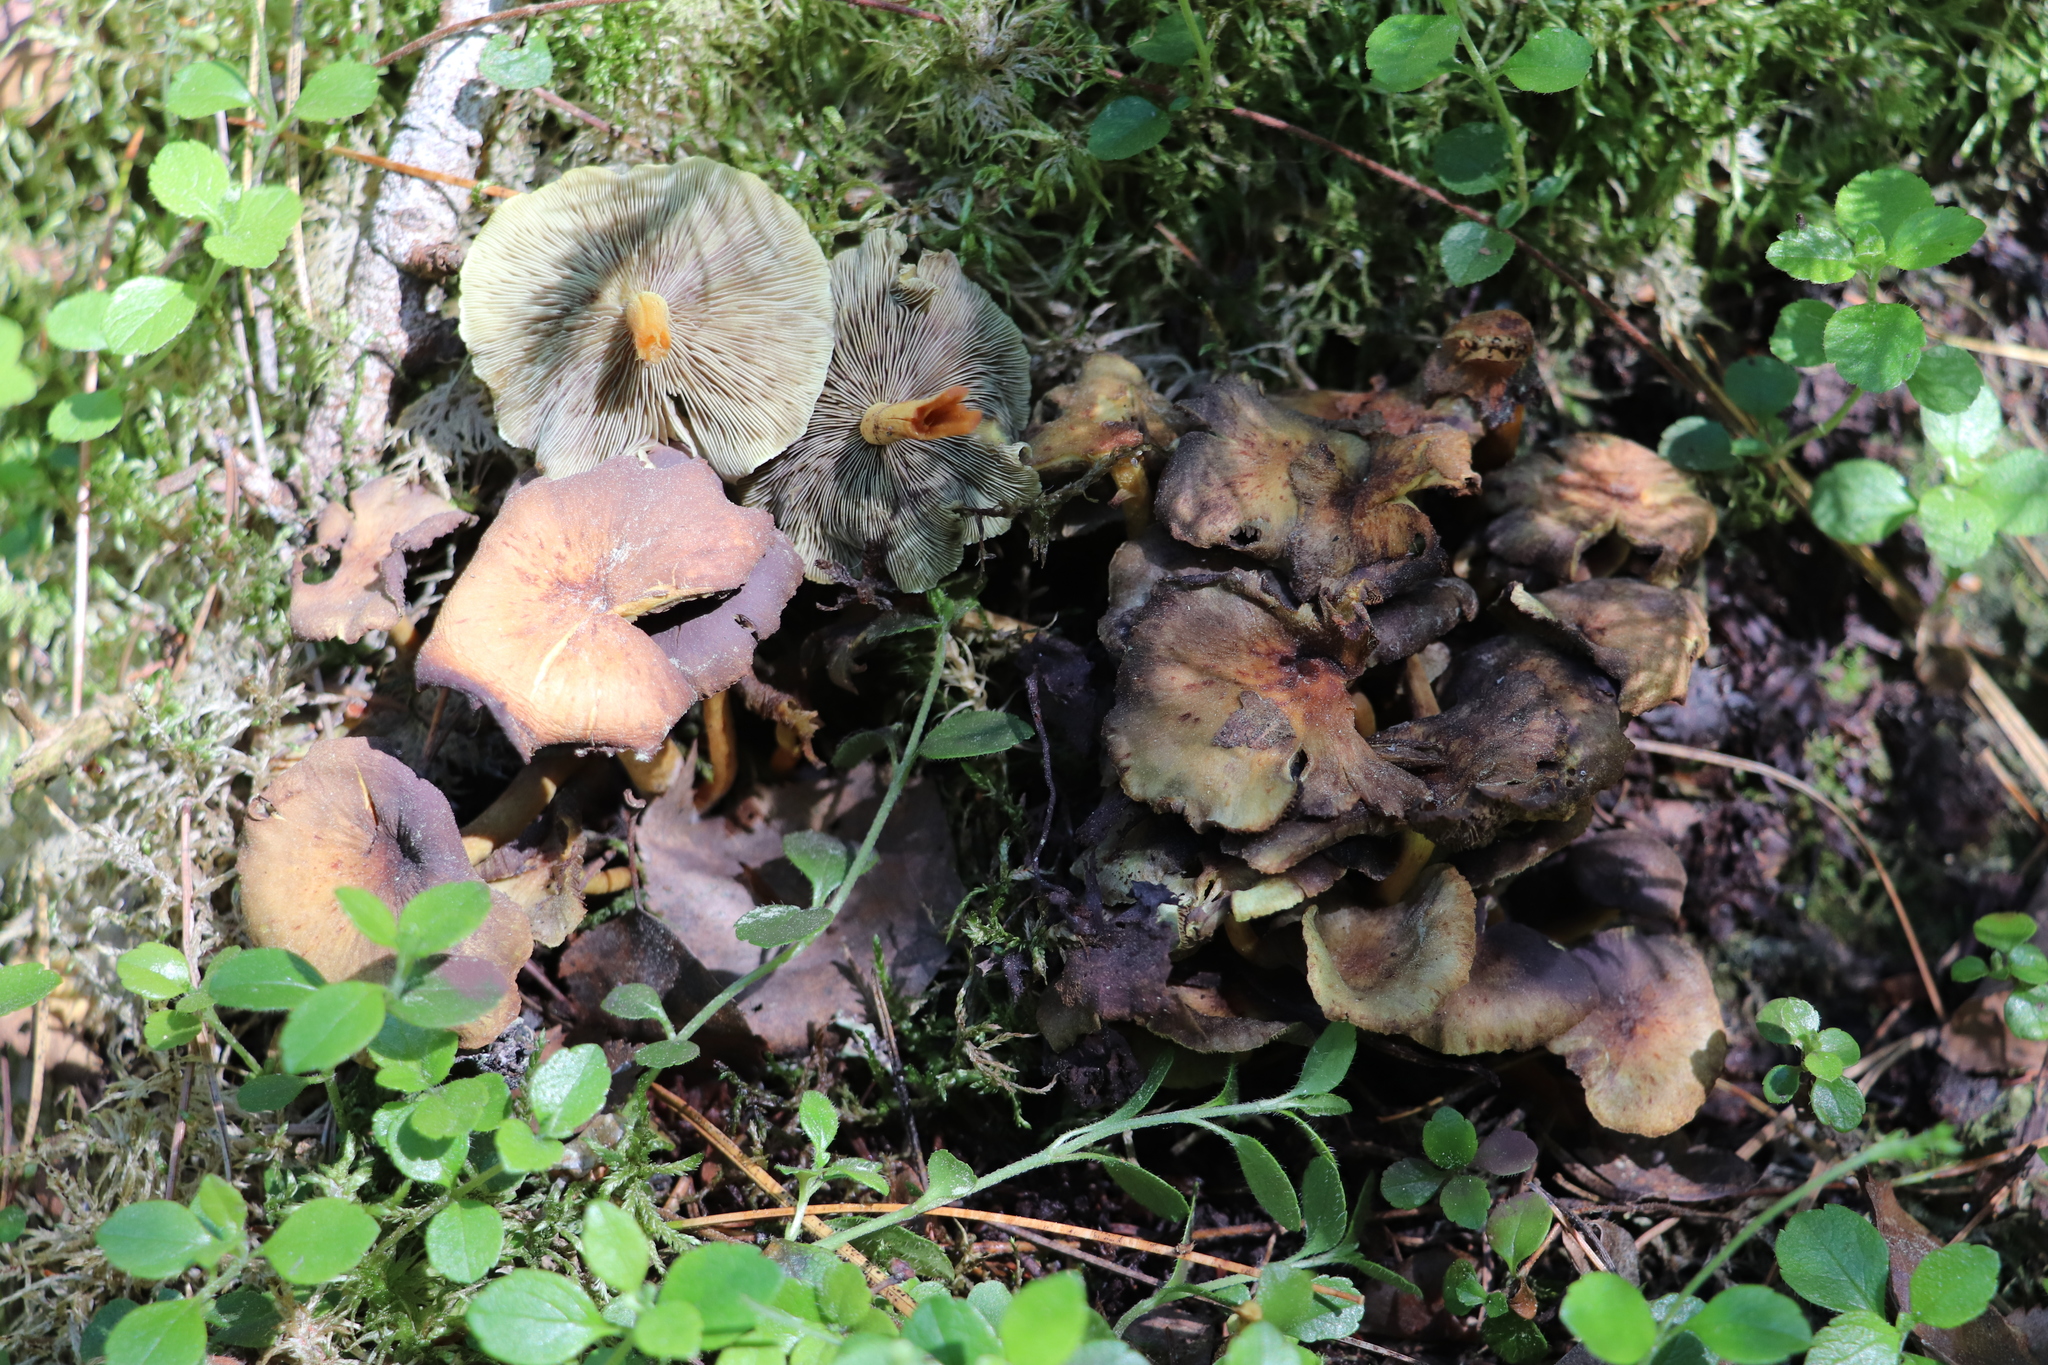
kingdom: Fungi
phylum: Basidiomycota
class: Agaricomycetes
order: Agaricales
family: Strophariaceae
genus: Hypholoma
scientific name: Hypholoma fasciculare
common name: Sulphur tuft
